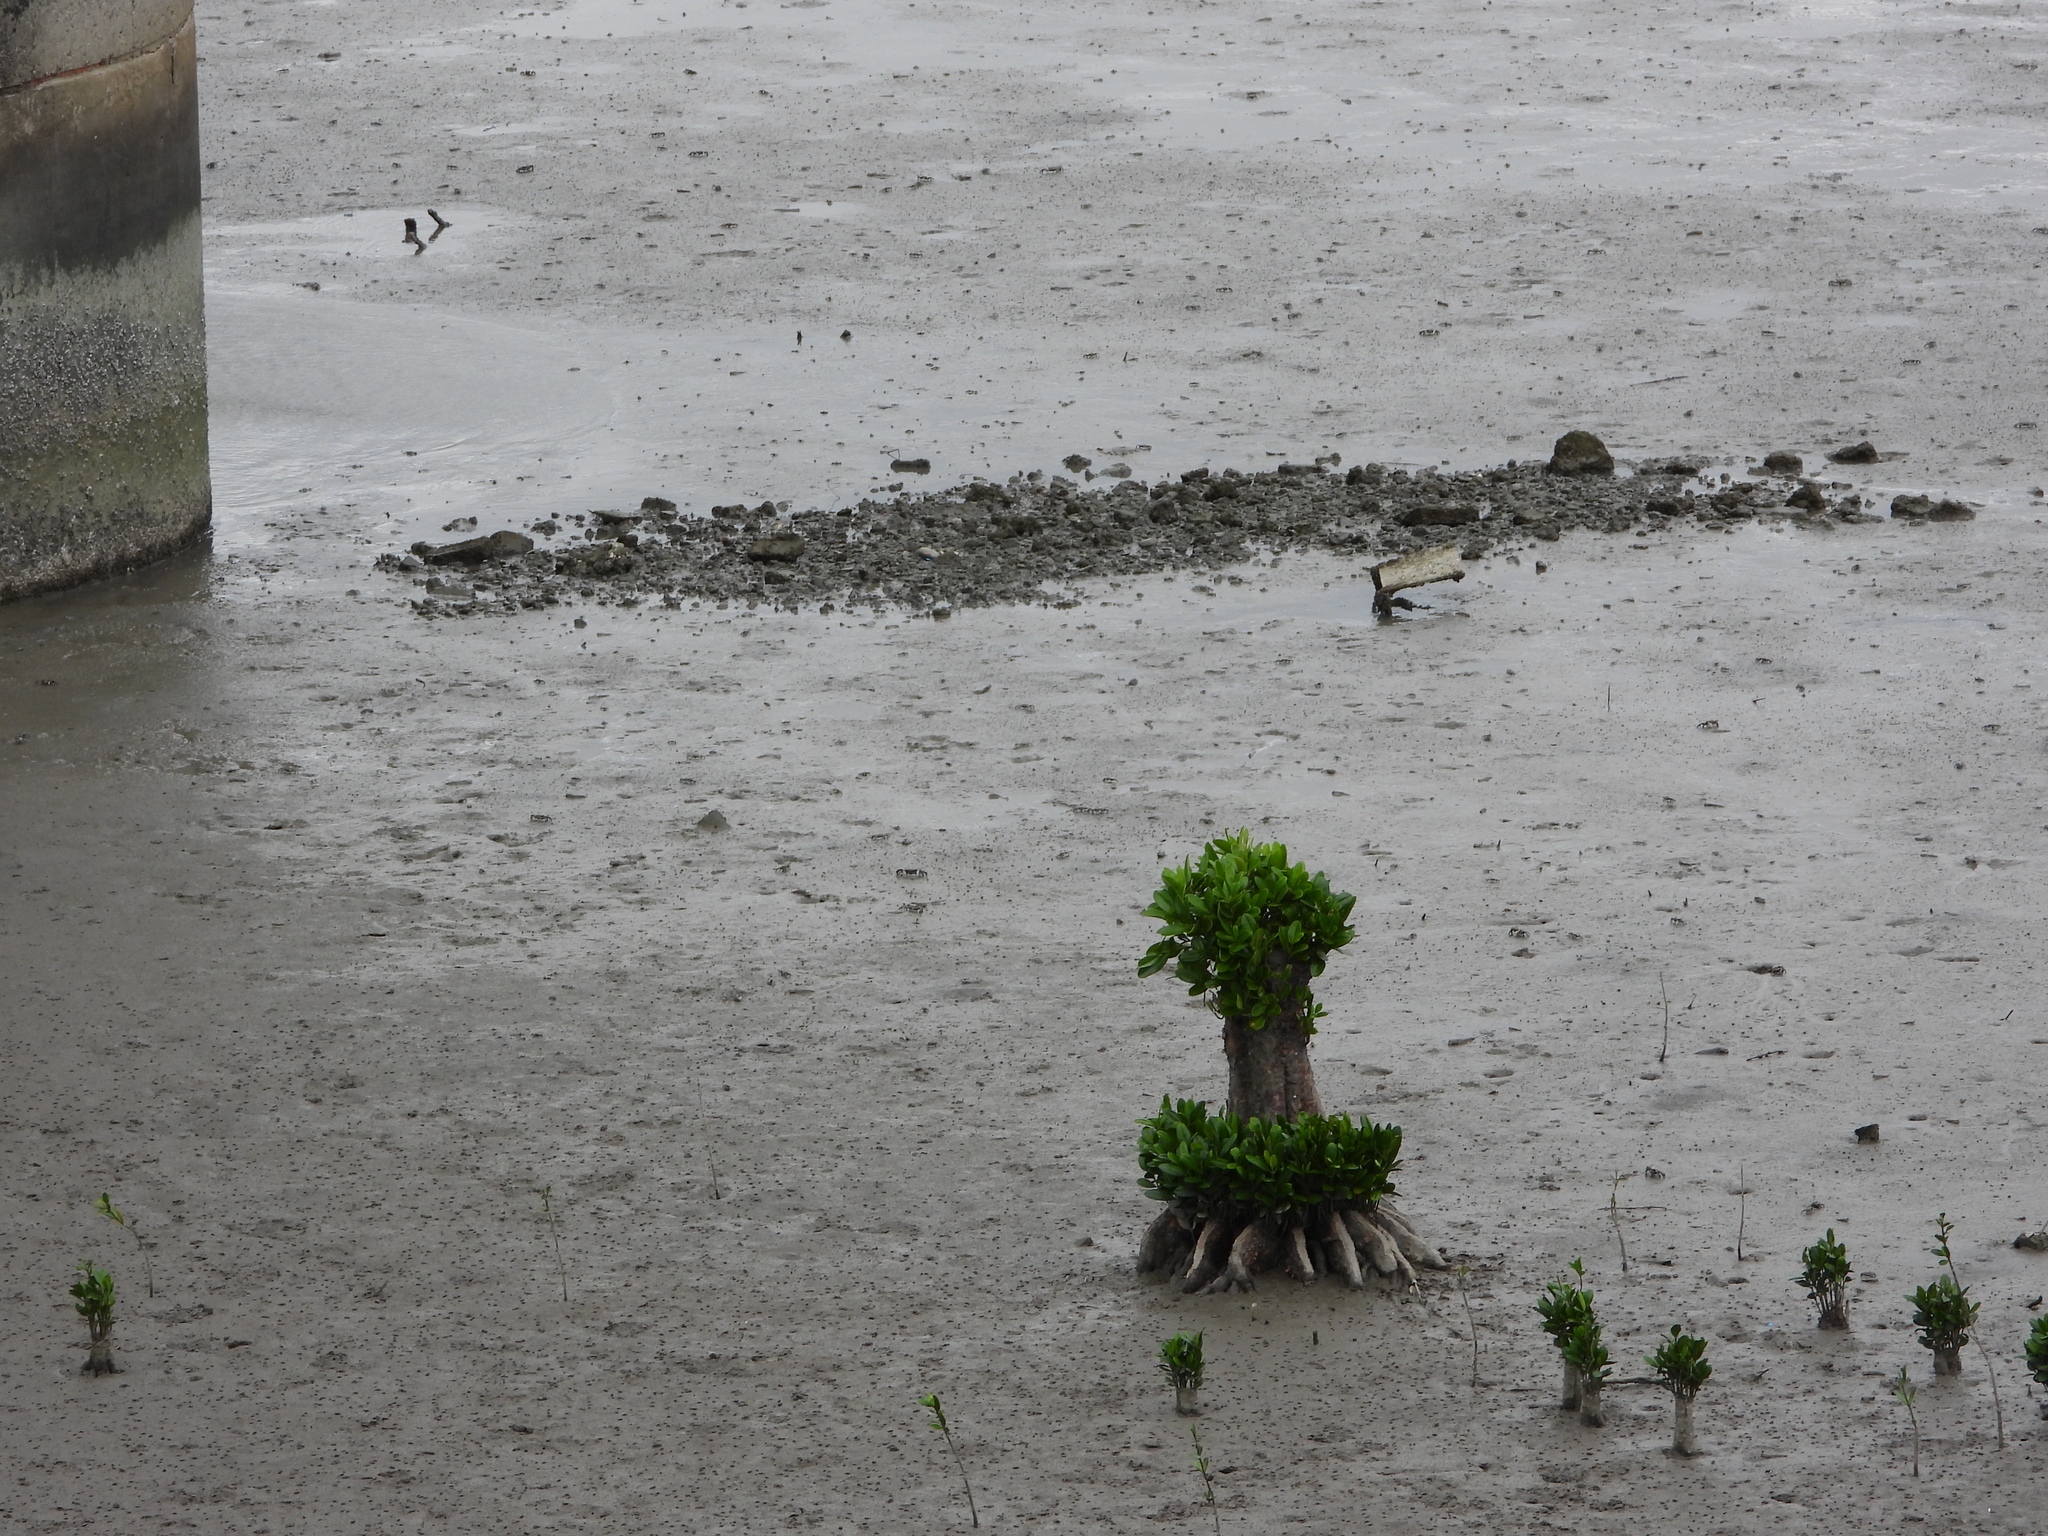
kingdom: Plantae
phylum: Tracheophyta
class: Magnoliopsida
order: Malpighiales
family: Rhizophoraceae
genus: Kandelia
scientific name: Kandelia obovata
